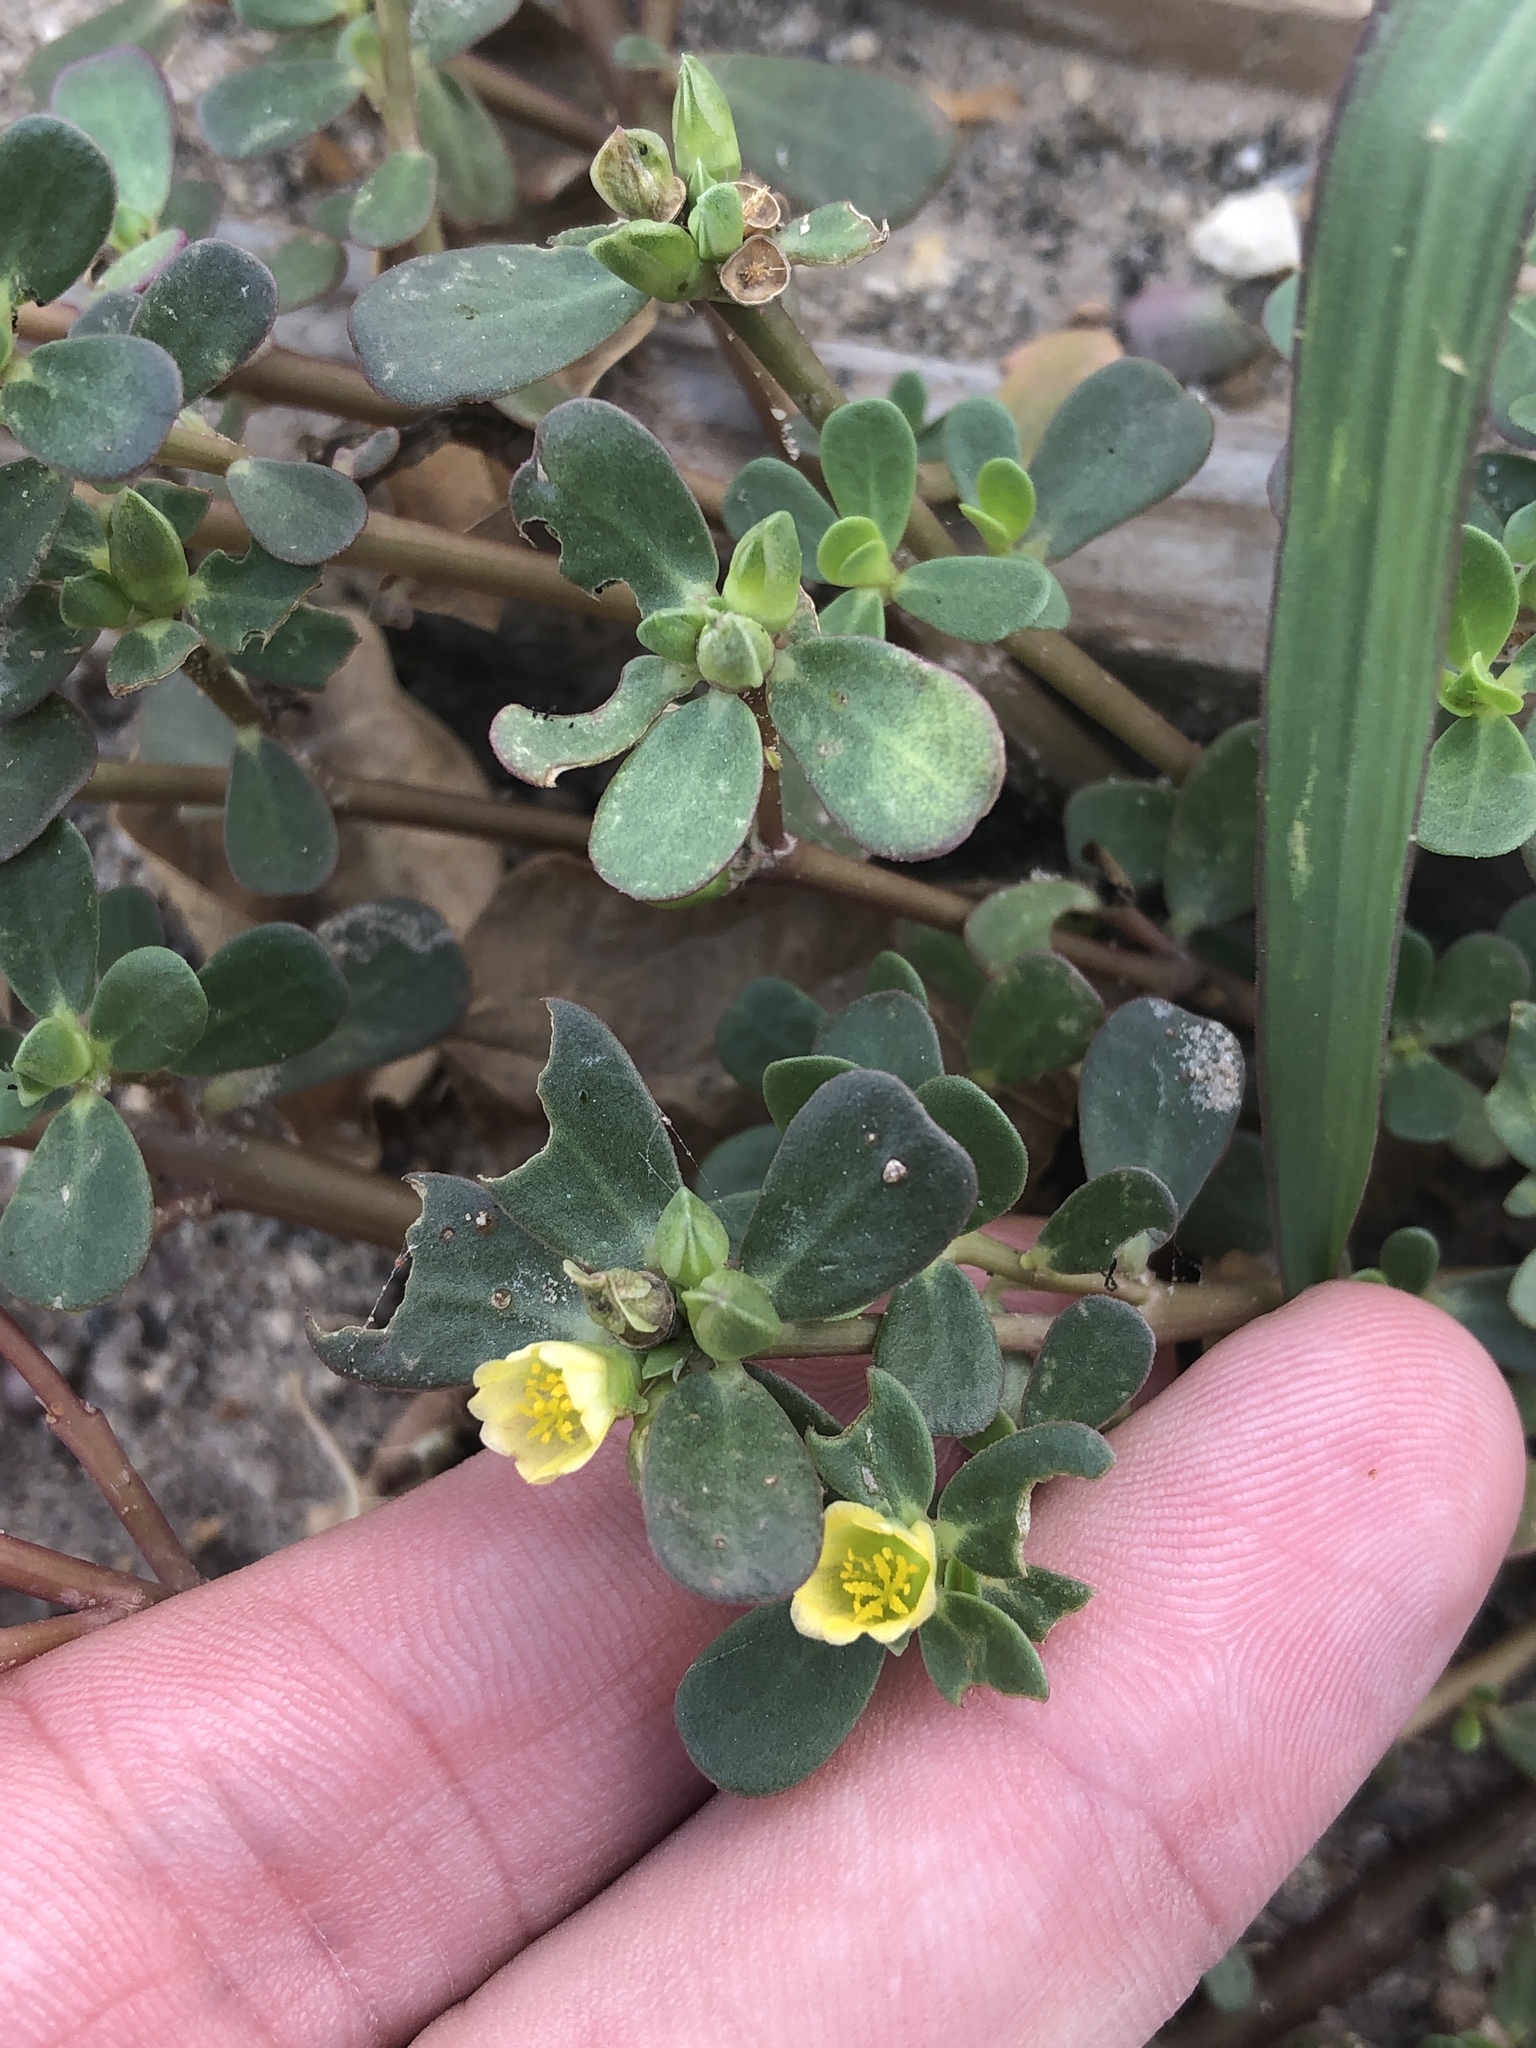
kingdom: Plantae
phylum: Tracheophyta
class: Magnoliopsida
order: Caryophyllales
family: Portulacaceae
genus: Portulaca
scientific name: Portulaca oleracea
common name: Common purslane
